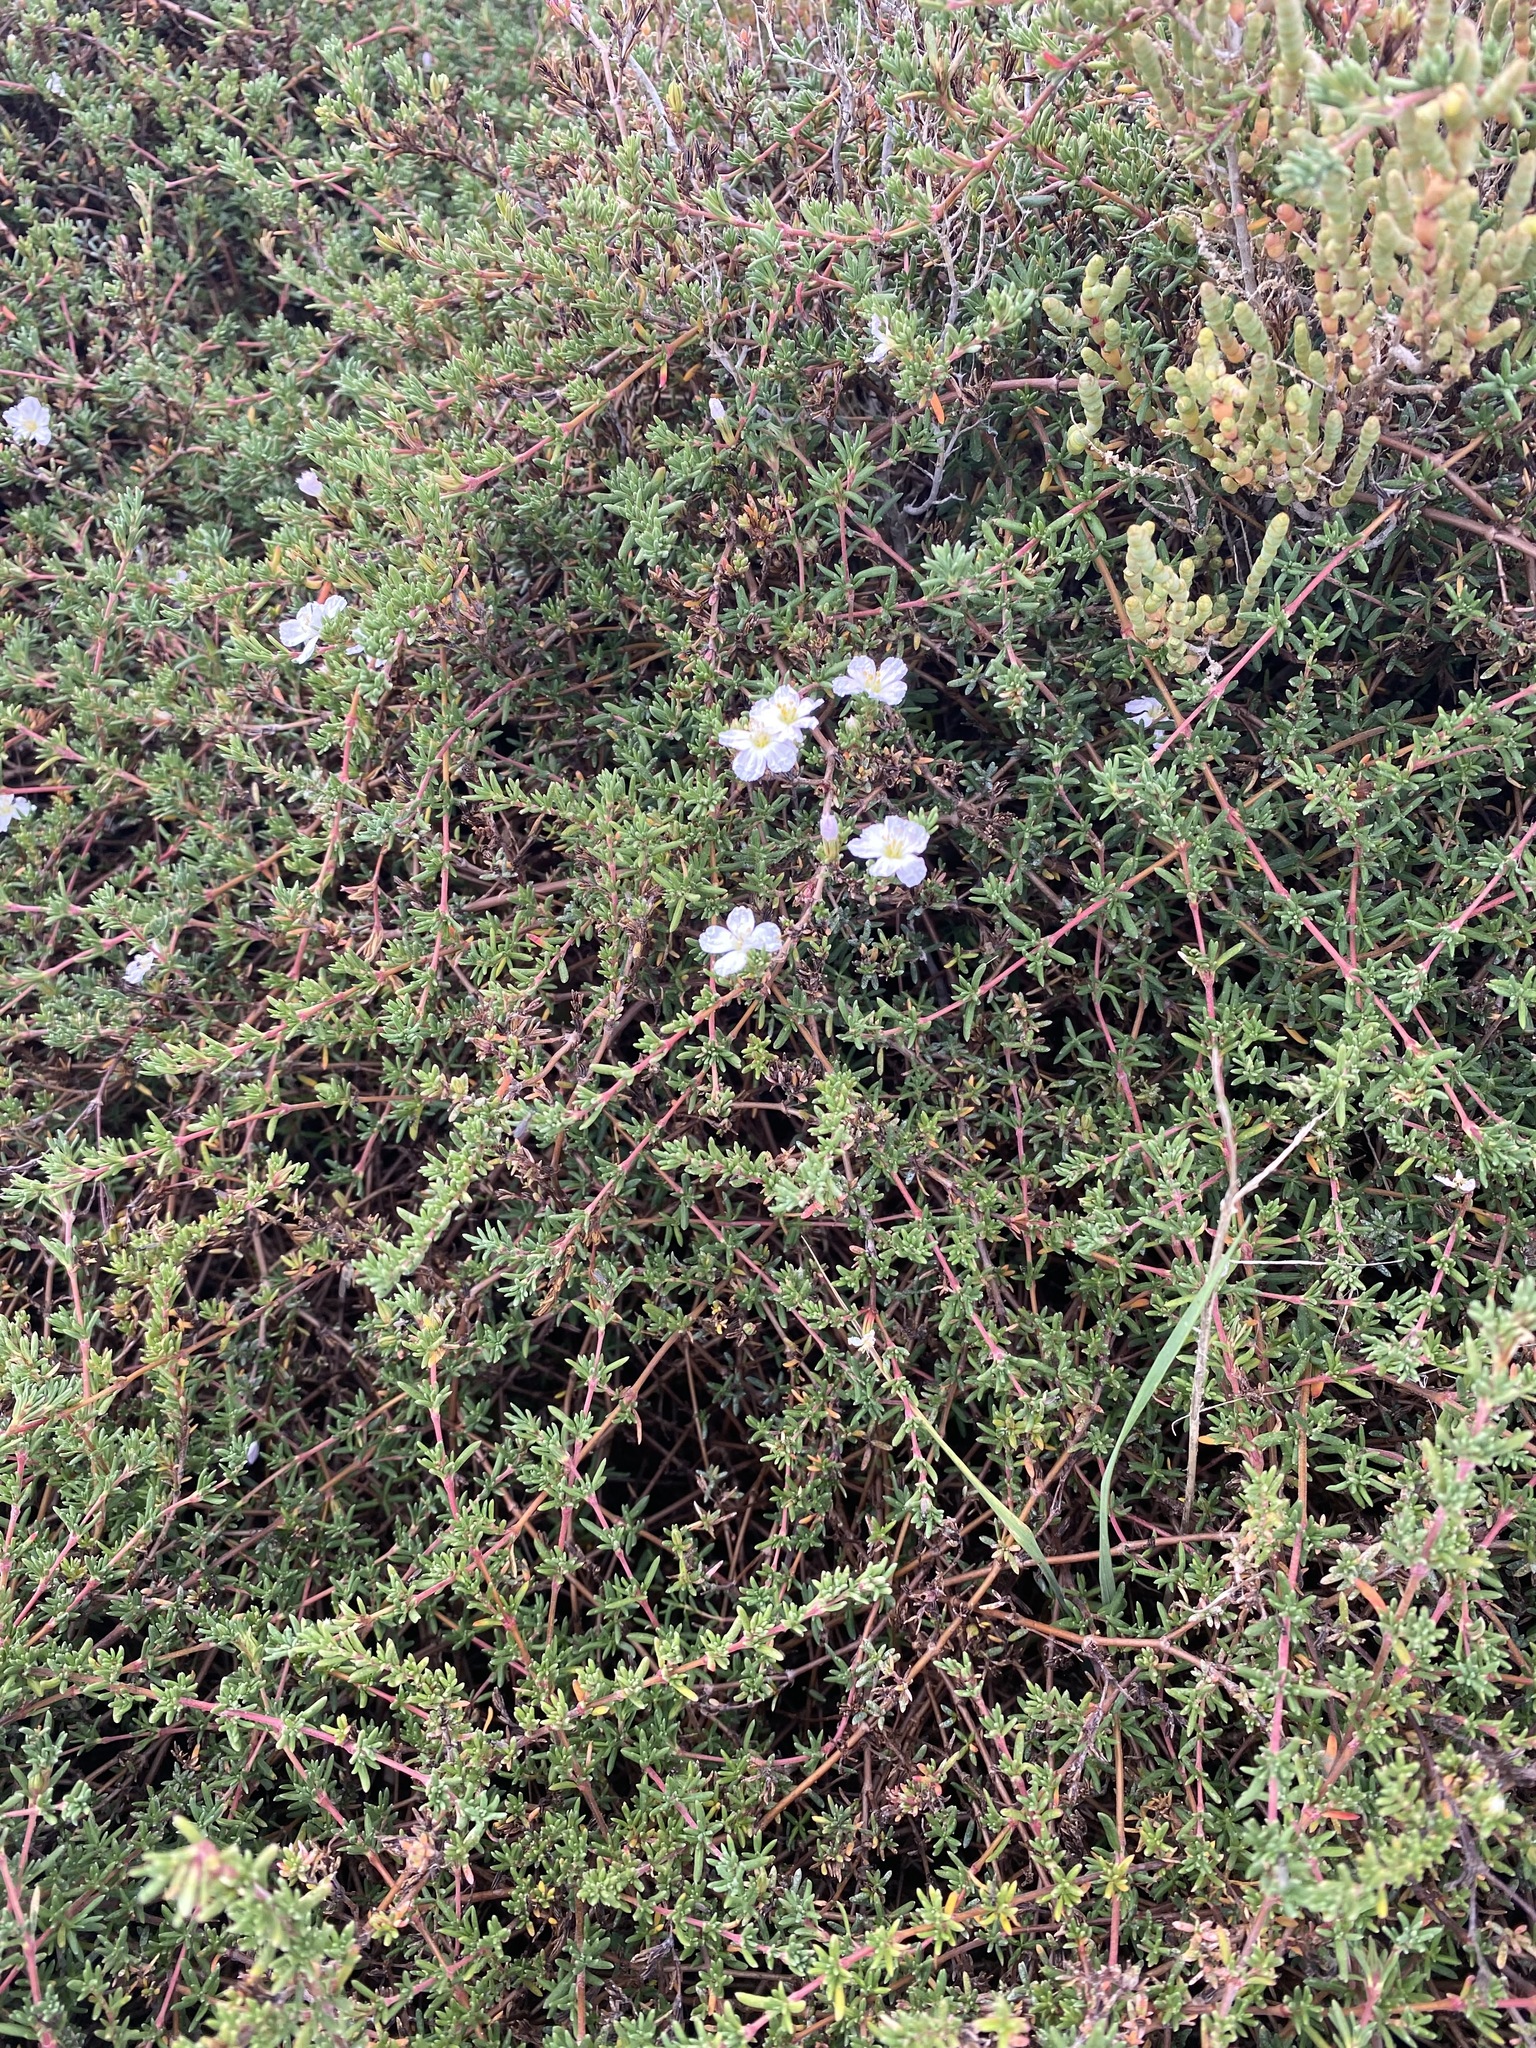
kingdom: Plantae
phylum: Tracheophyta
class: Magnoliopsida
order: Caryophyllales
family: Frankeniaceae
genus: Frankenia
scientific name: Frankenia pauciflora
